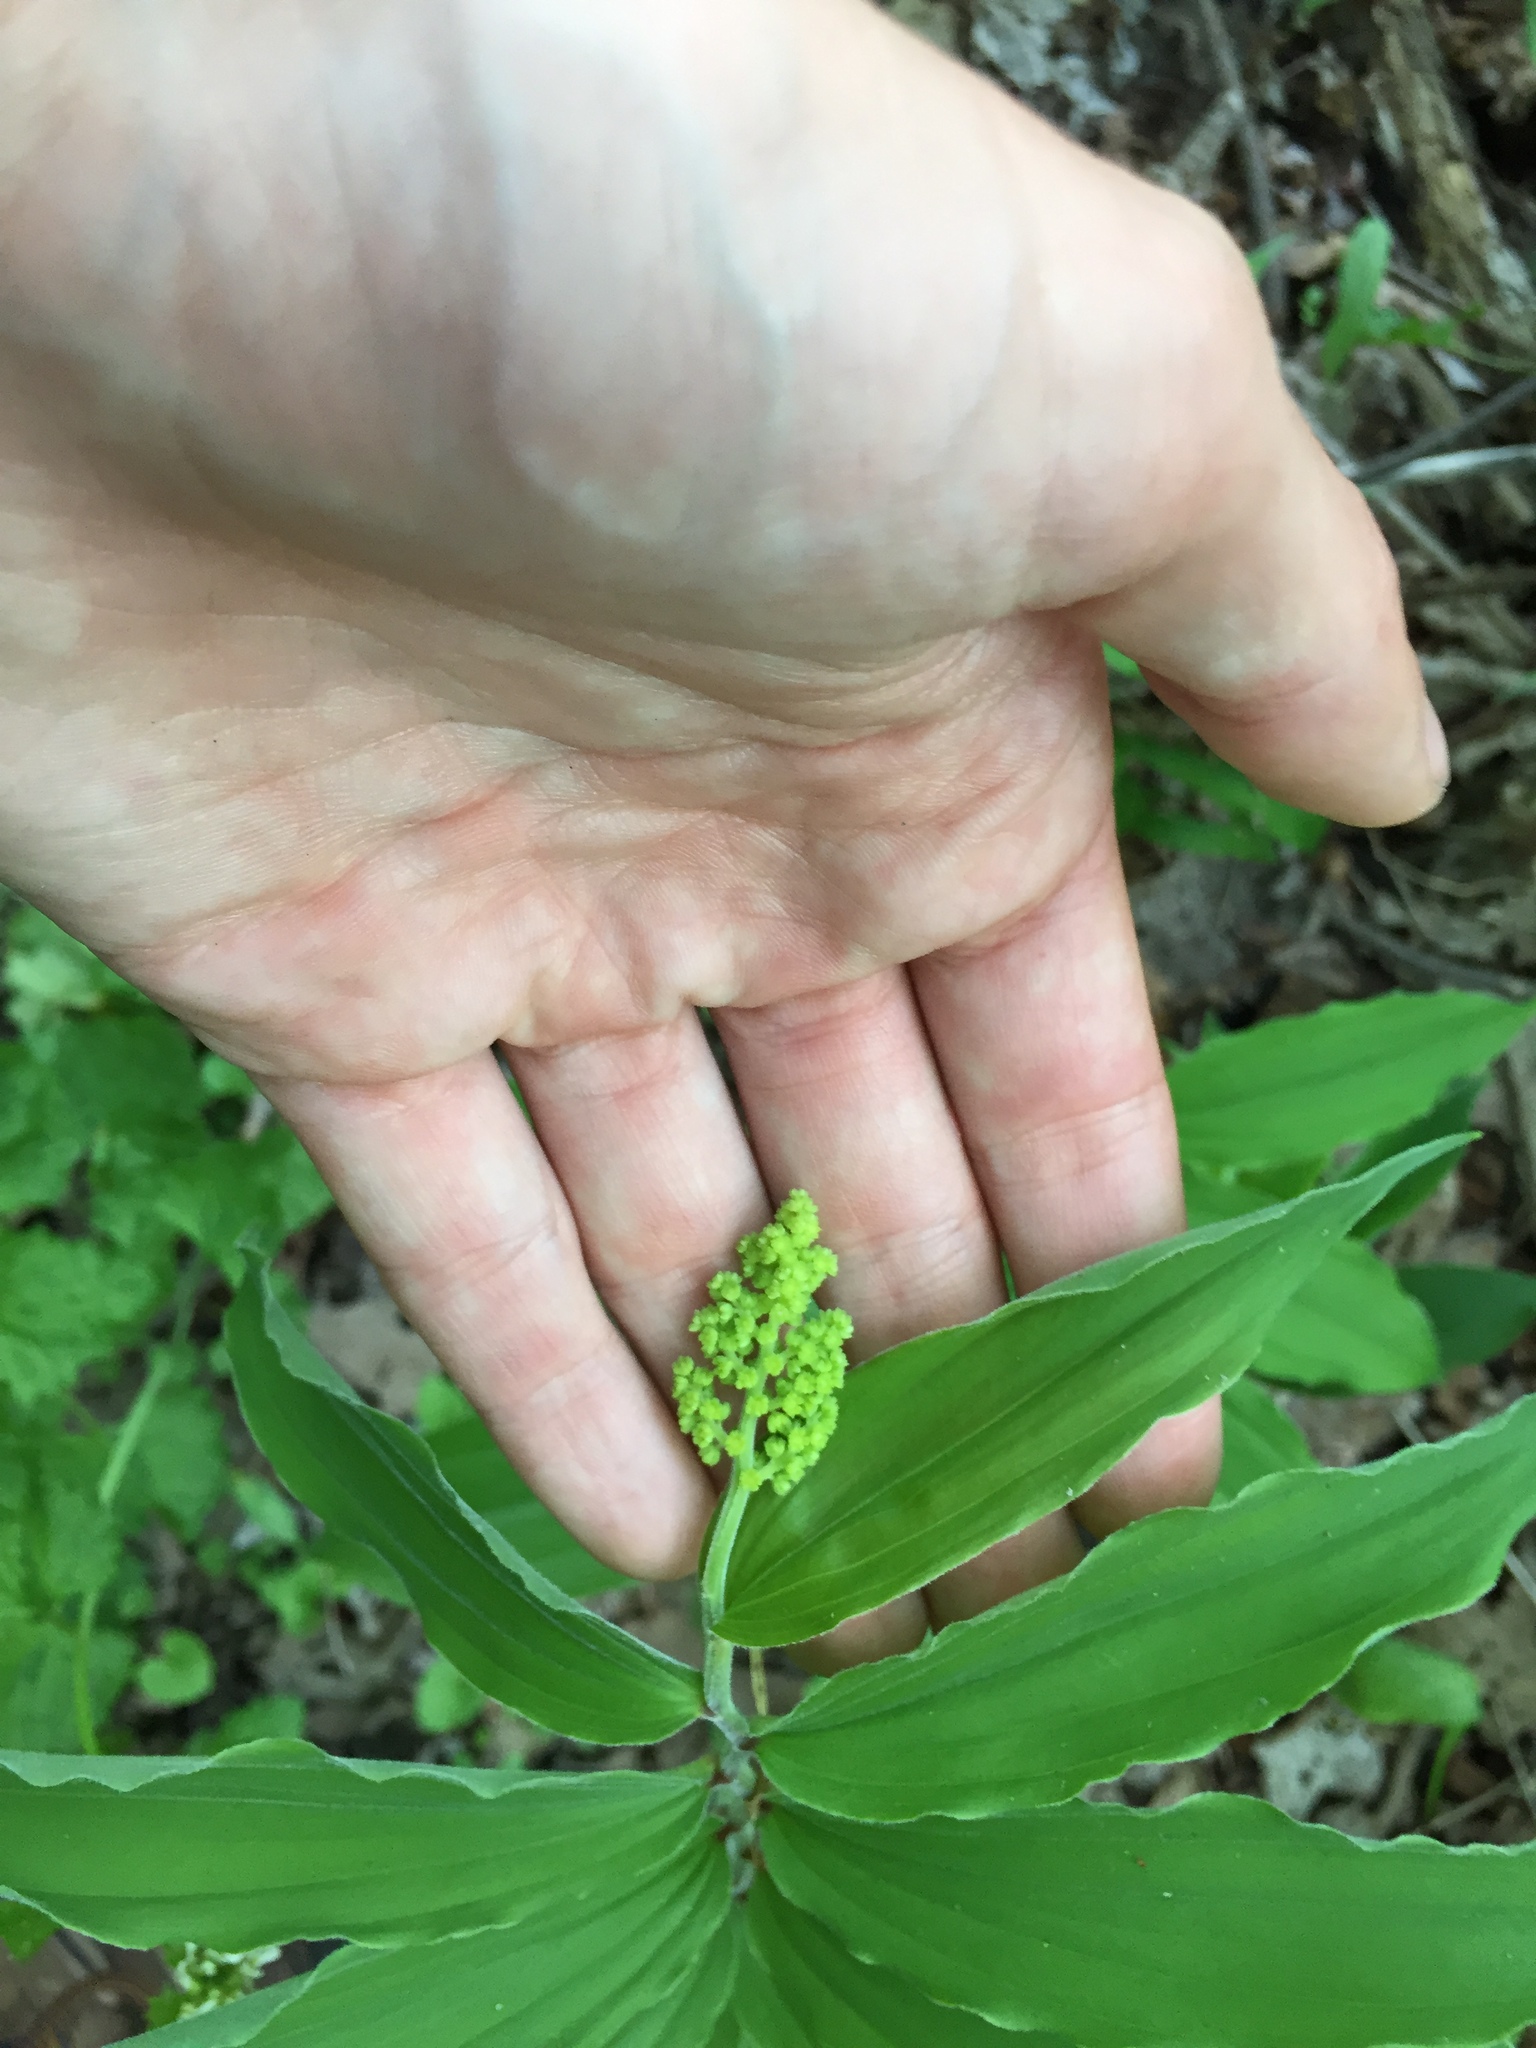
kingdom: Plantae
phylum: Tracheophyta
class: Liliopsida
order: Asparagales
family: Asparagaceae
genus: Maianthemum
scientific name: Maianthemum racemosum
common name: False spikenard
